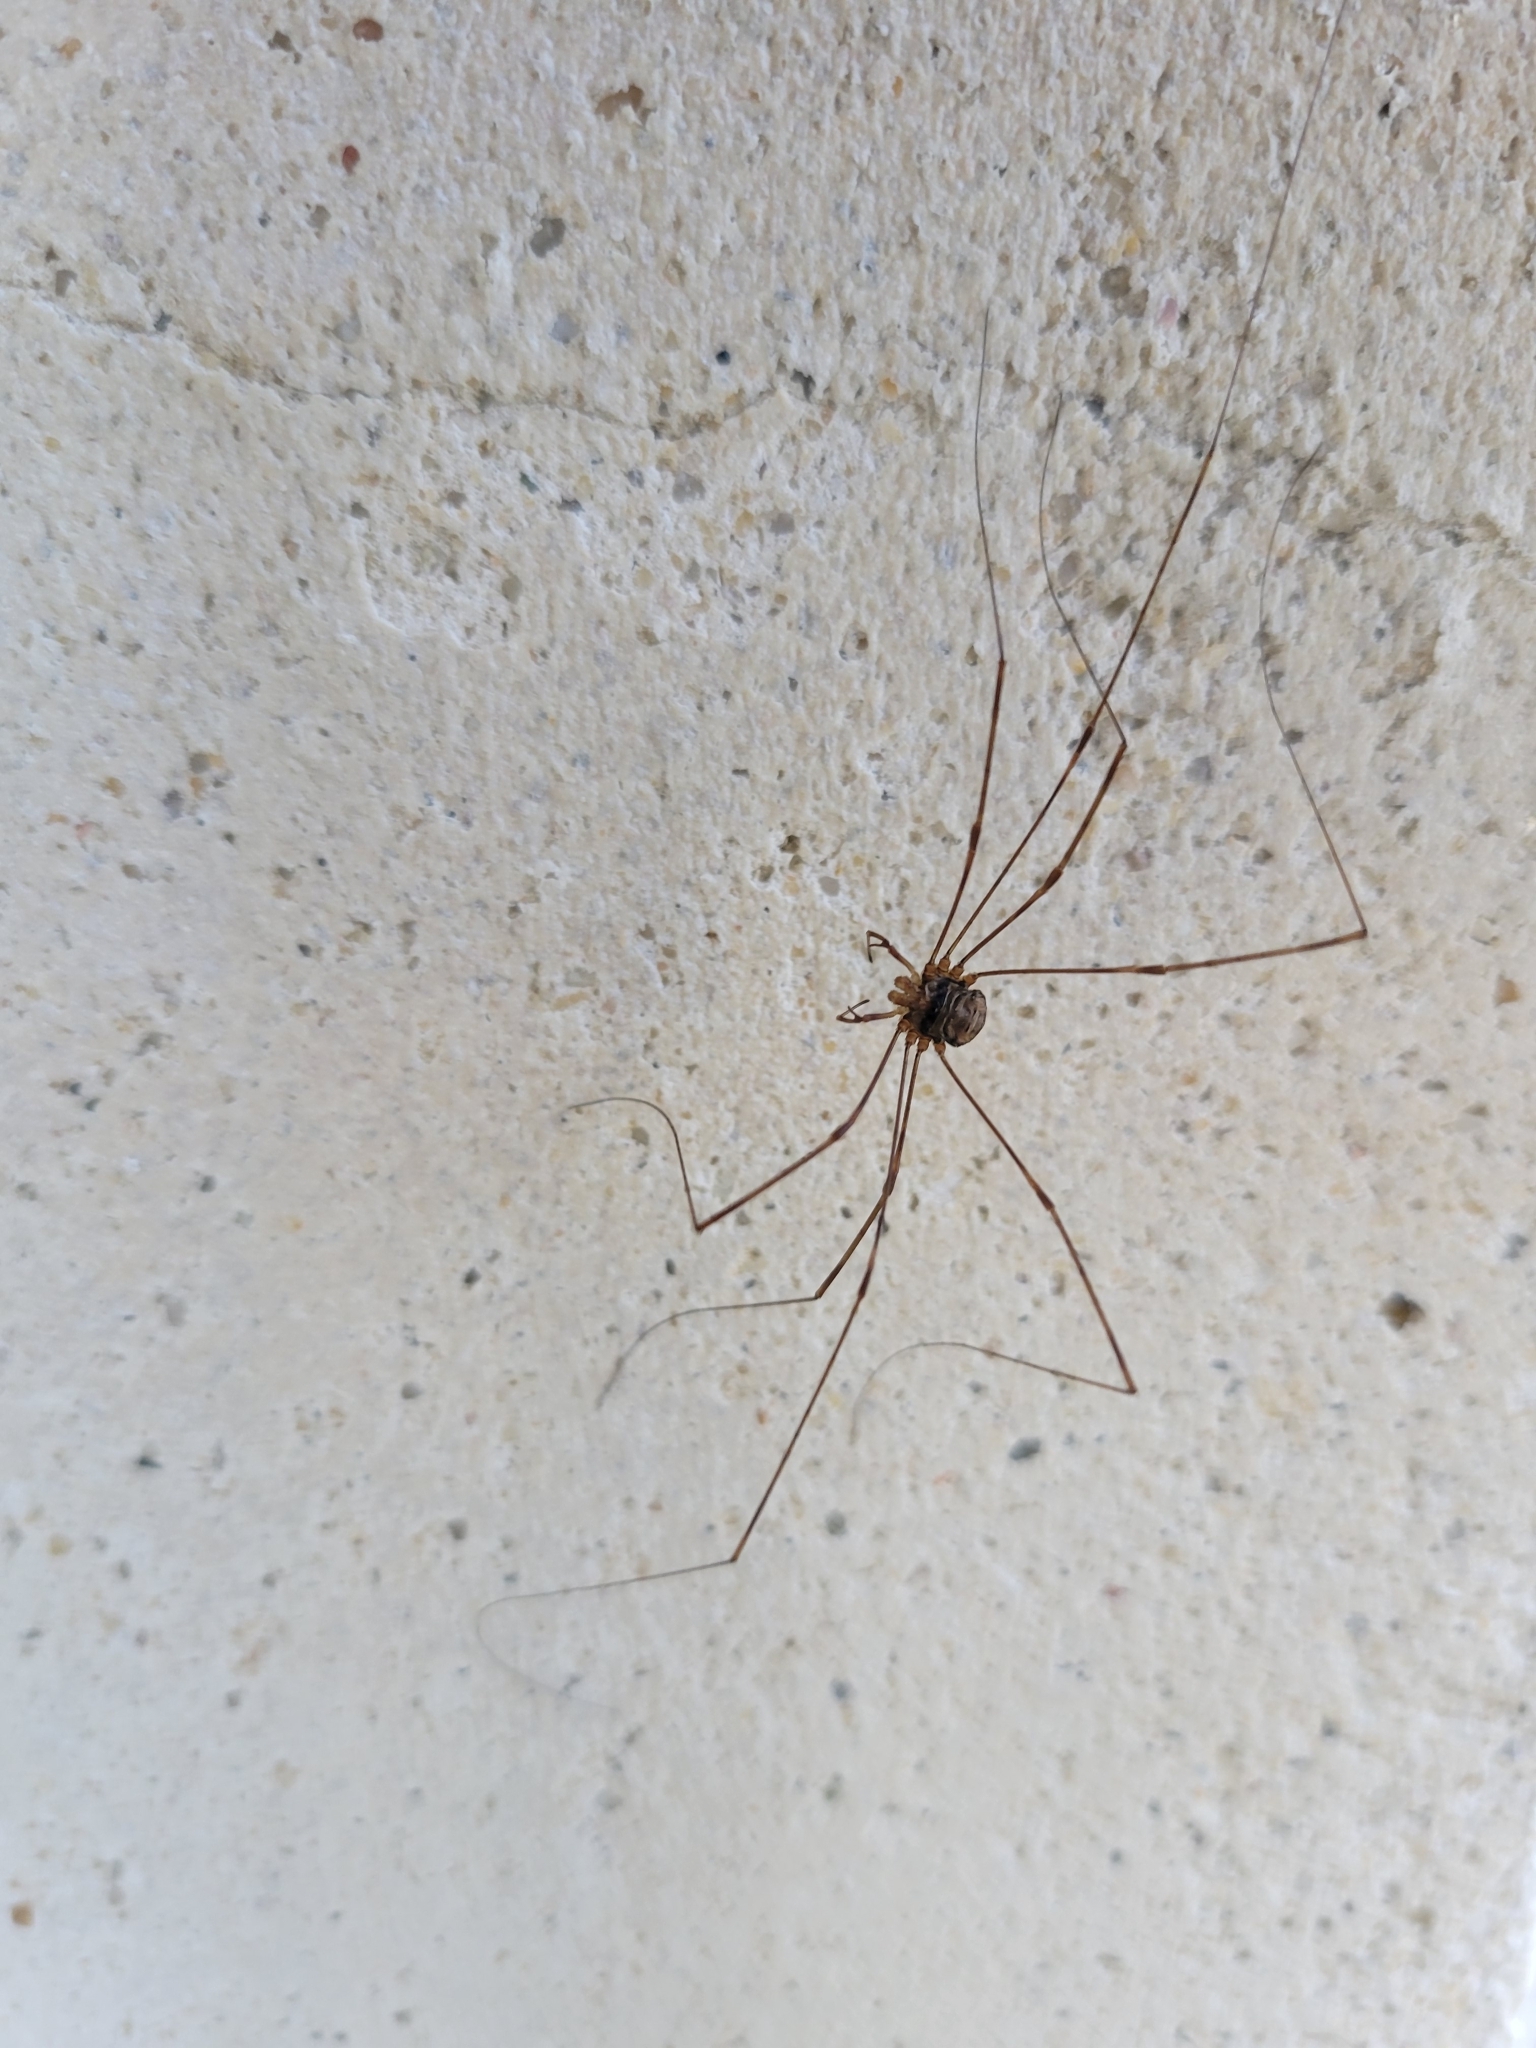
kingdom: Animalia
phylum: Arthropoda
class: Arachnida
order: Opiliones
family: Phalangiidae
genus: Dicranopalpus
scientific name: Dicranopalpus ramosus
